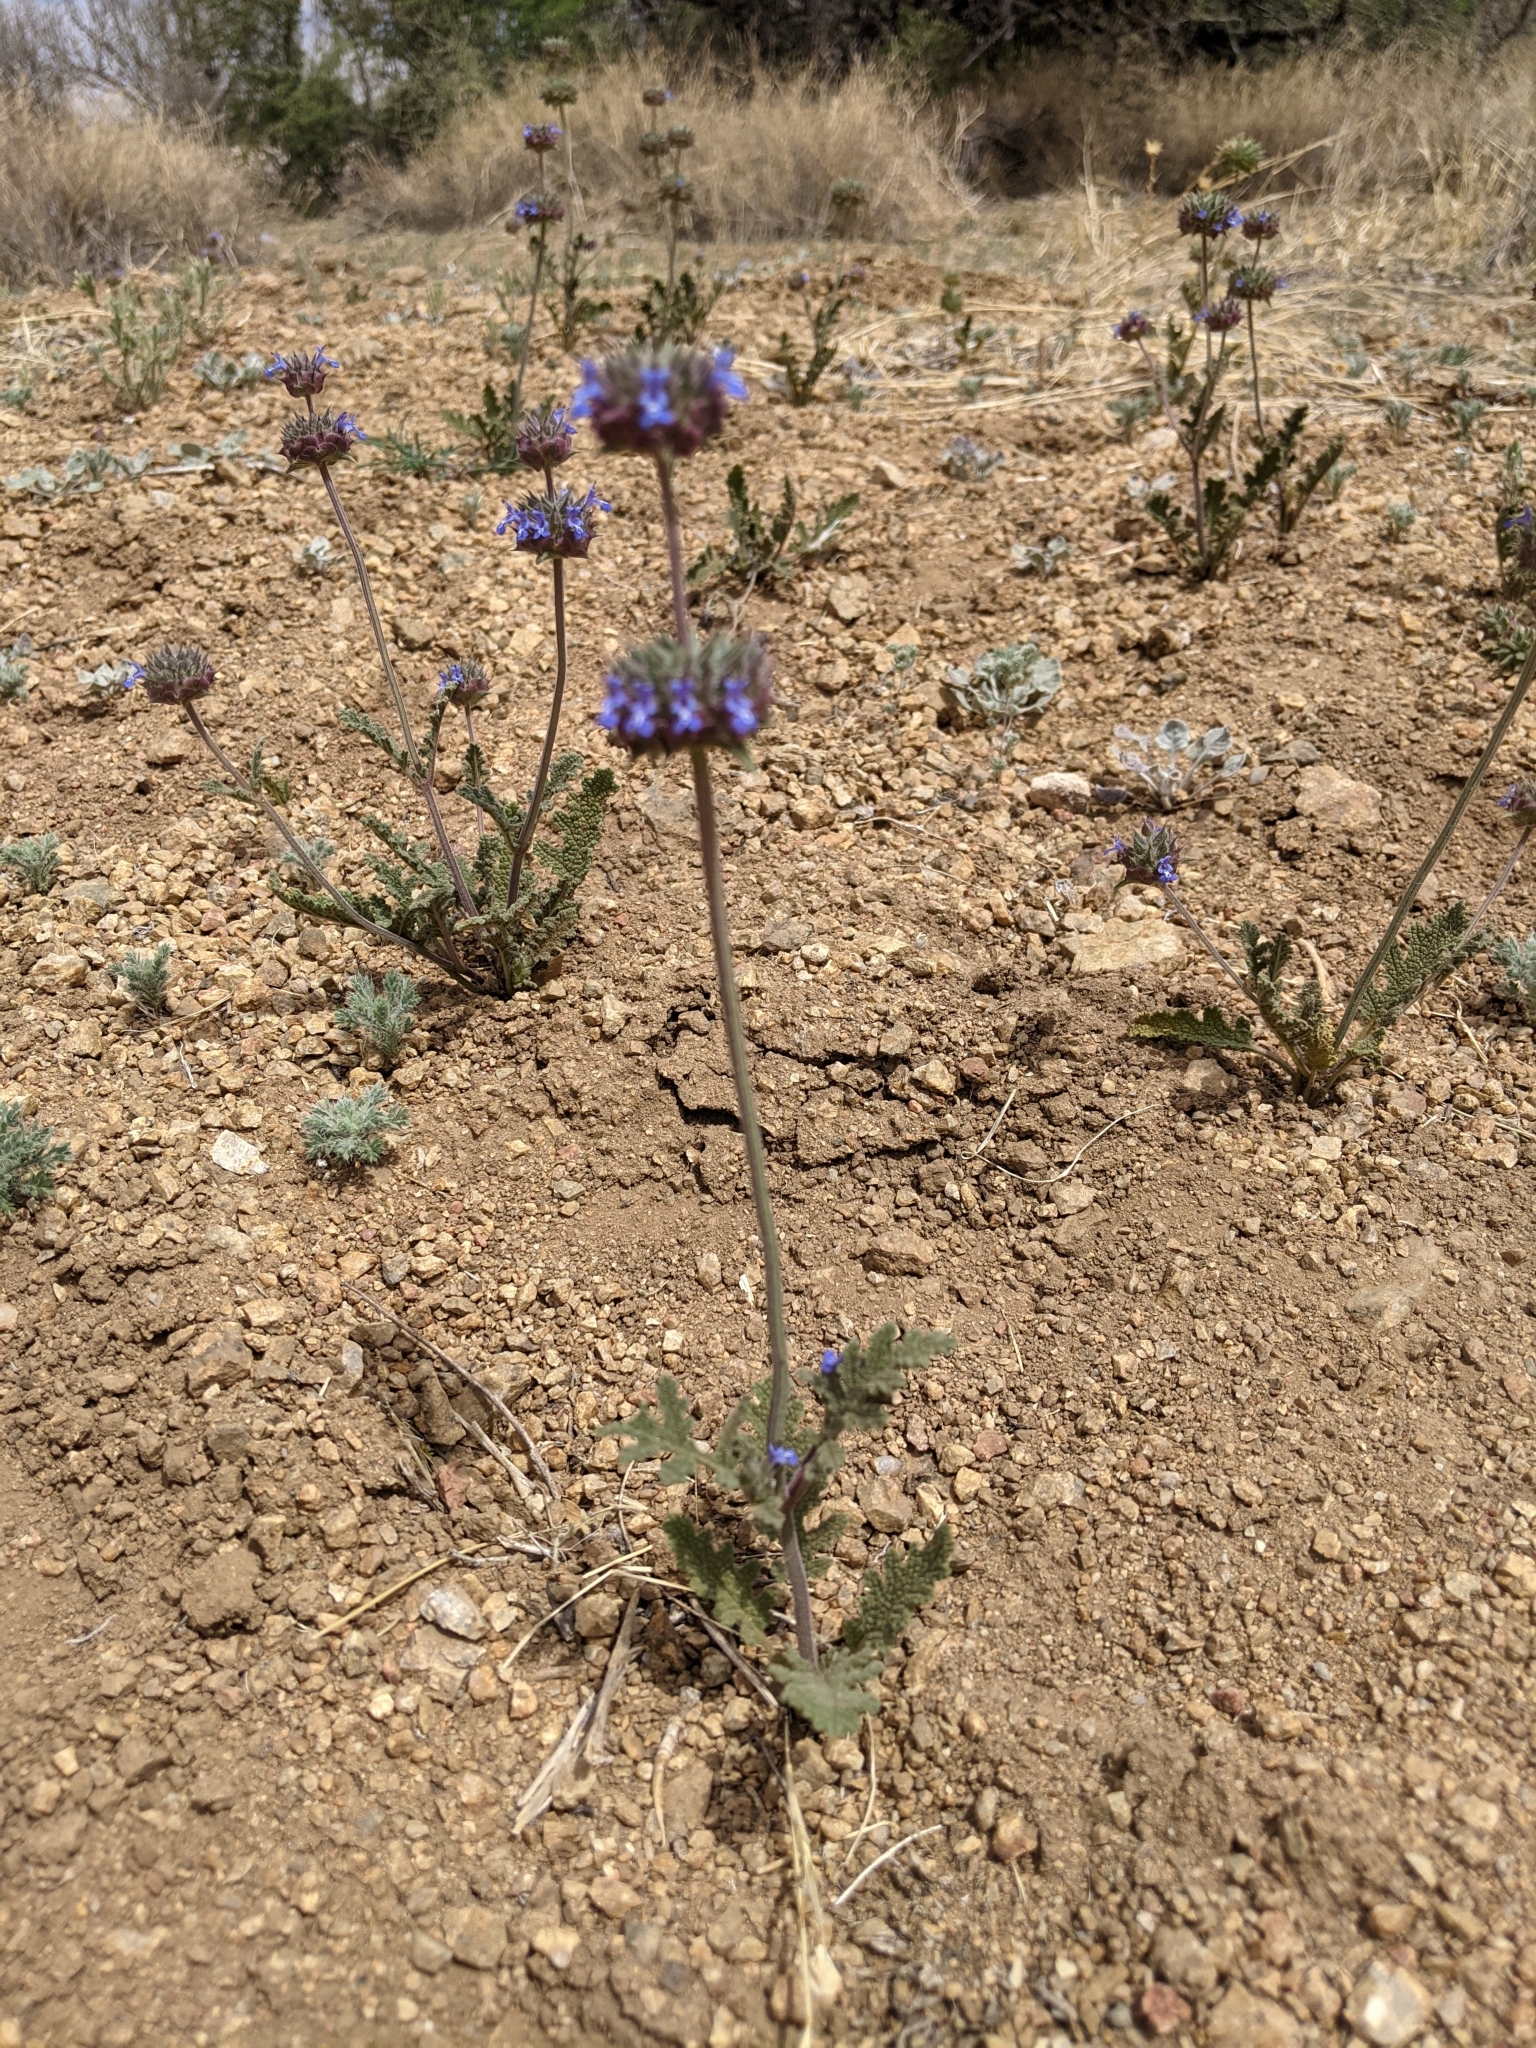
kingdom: Plantae
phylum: Tracheophyta
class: Magnoliopsida
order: Lamiales
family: Lamiaceae
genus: Salvia
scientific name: Salvia columbariae
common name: Chia
